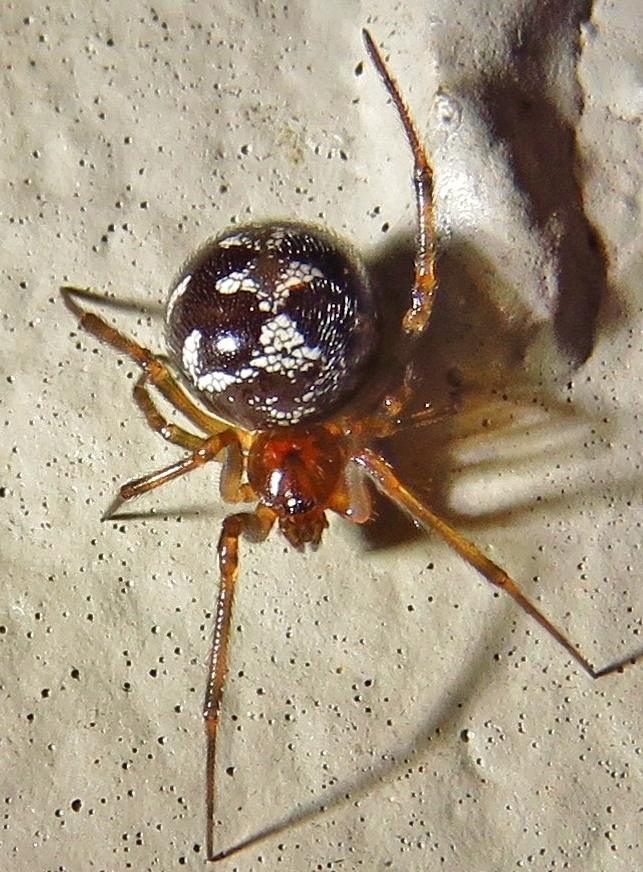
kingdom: Animalia
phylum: Arthropoda
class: Arachnida
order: Araneae
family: Theridiidae
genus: Steatoda
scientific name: Steatoda triangulosa
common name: Triangulate bud spider
